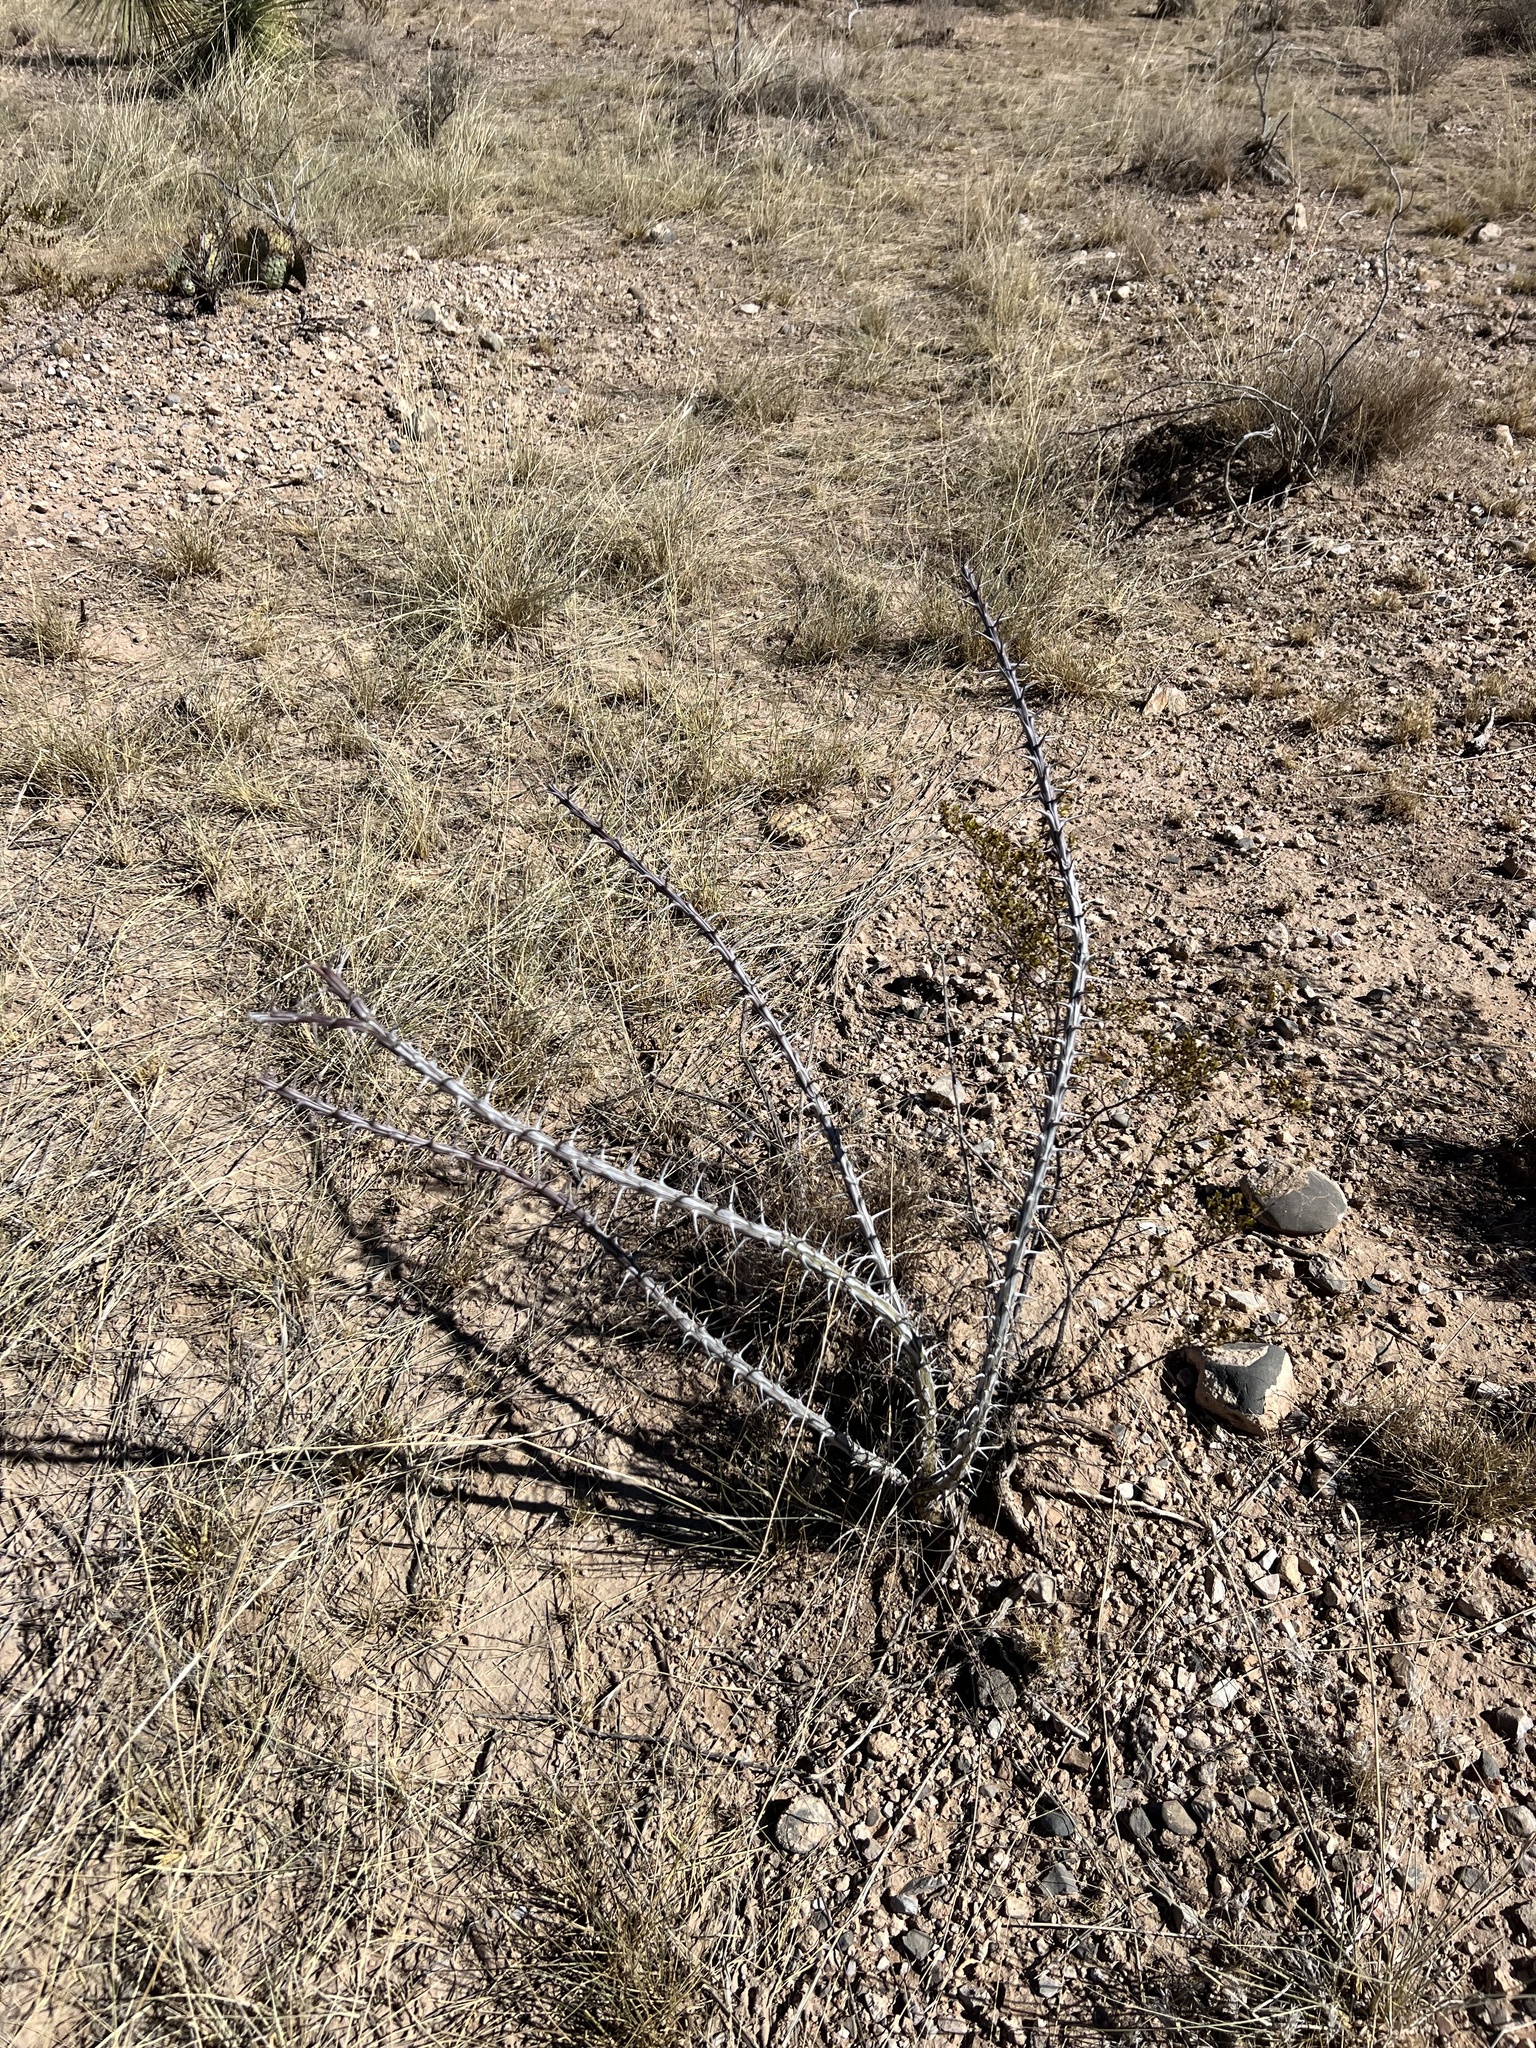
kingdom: Plantae
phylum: Tracheophyta
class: Magnoliopsida
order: Ericales
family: Fouquieriaceae
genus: Fouquieria
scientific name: Fouquieria splendens
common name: Vine-cactus
